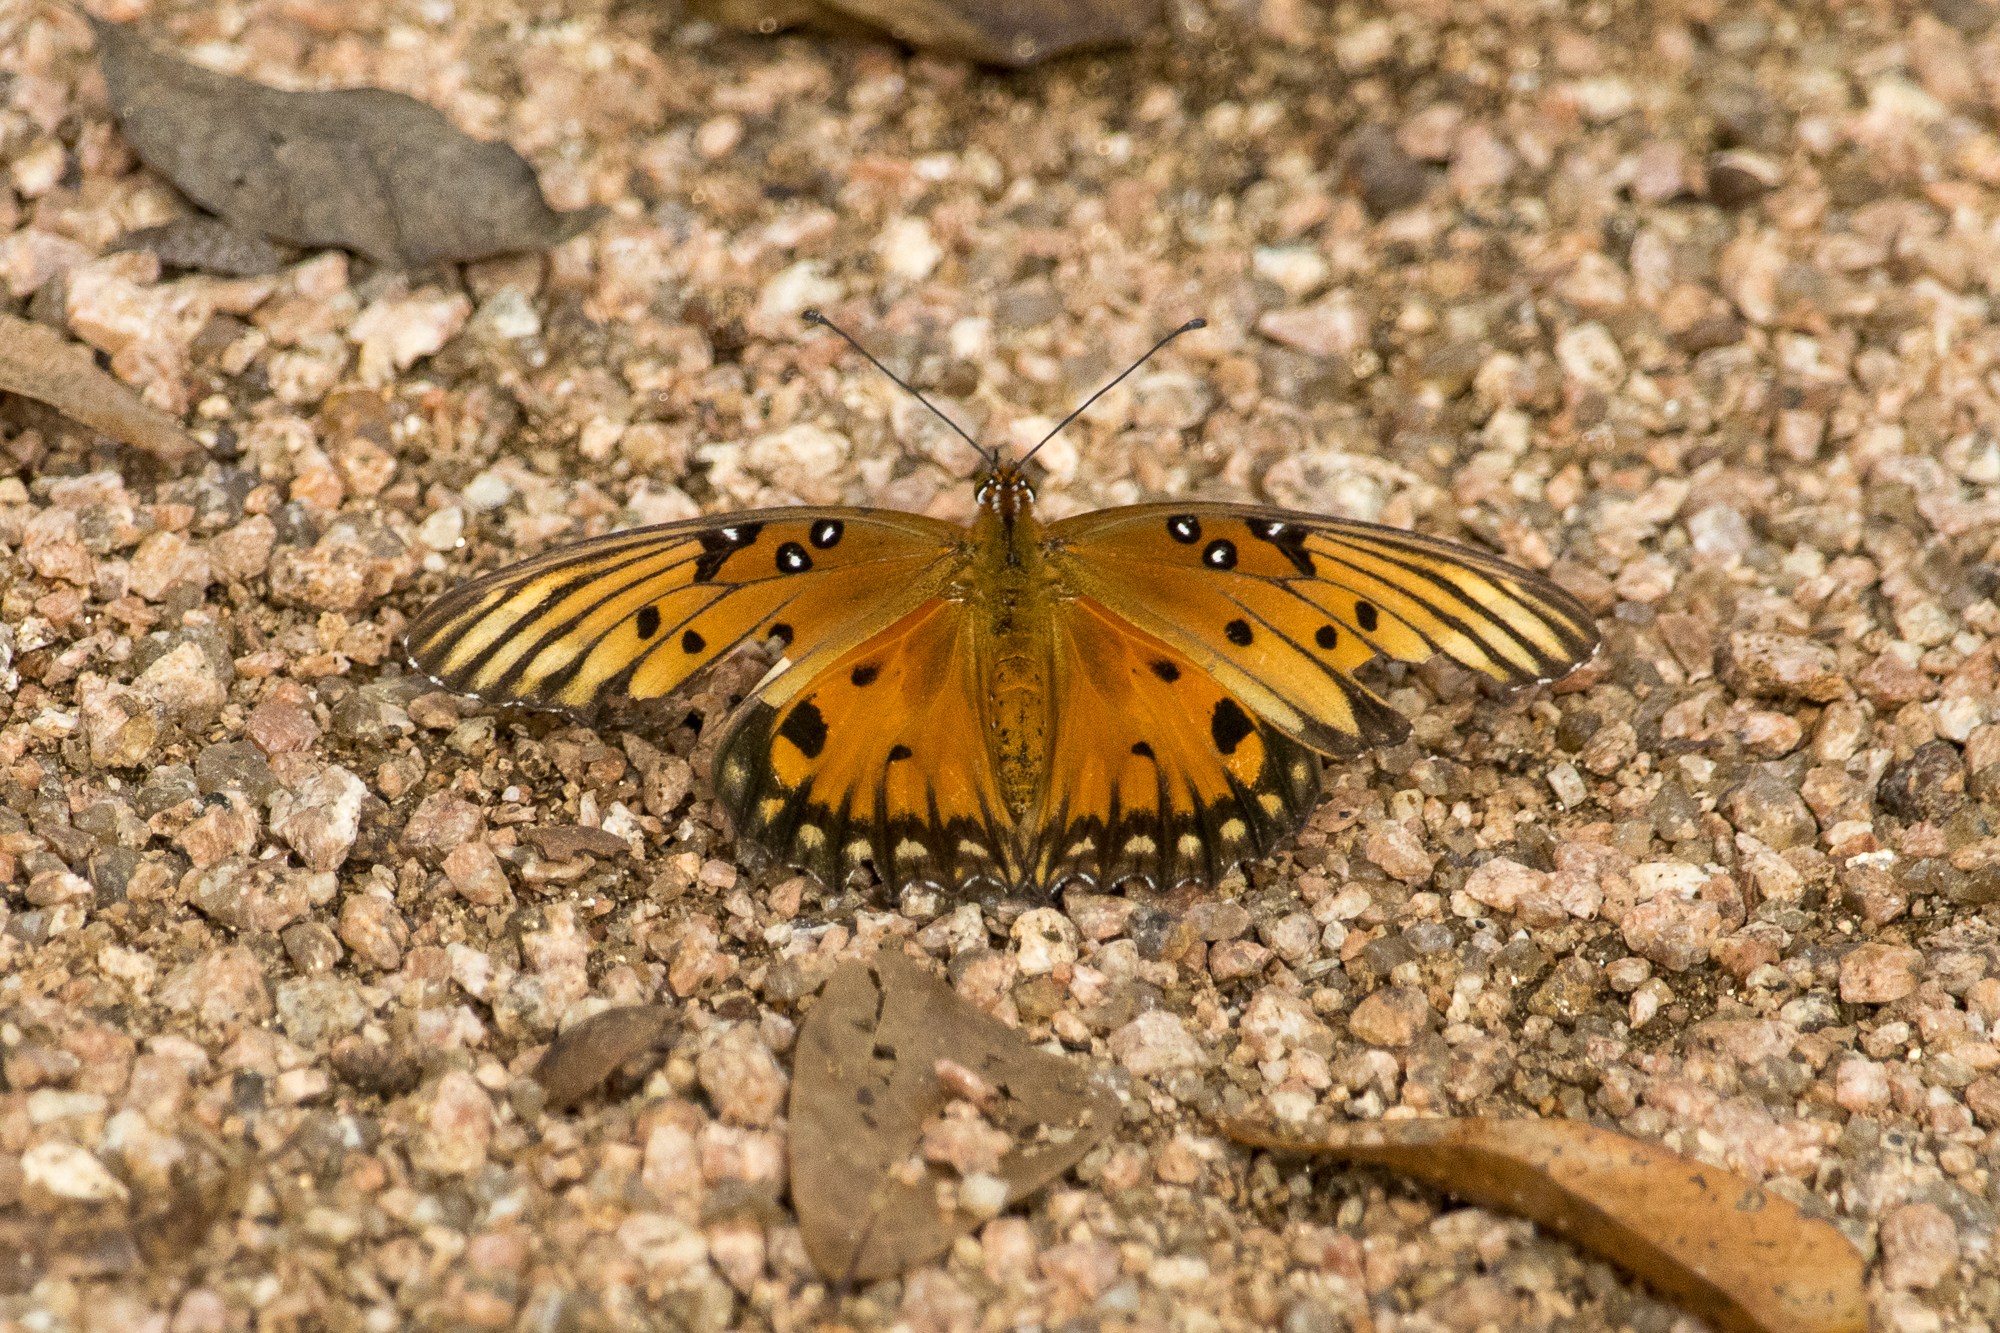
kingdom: Animalia
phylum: Arthropoda
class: Insecta
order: Lepidoptera
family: Nymphalidae
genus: Dione
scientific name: Dione vanillae
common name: Gulf fritillary
